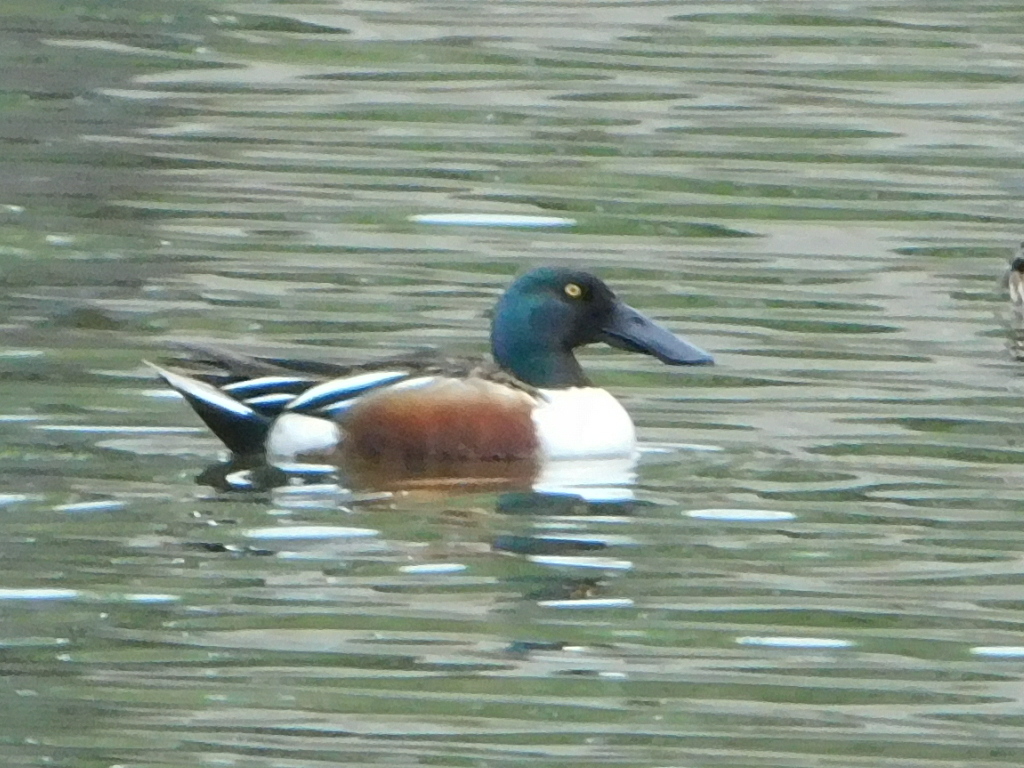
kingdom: Animalia
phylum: Chordata
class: Aves
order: Anseriformes
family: Anatidae
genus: Spatula
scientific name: Spatula clypeata
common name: Northern shoveler
